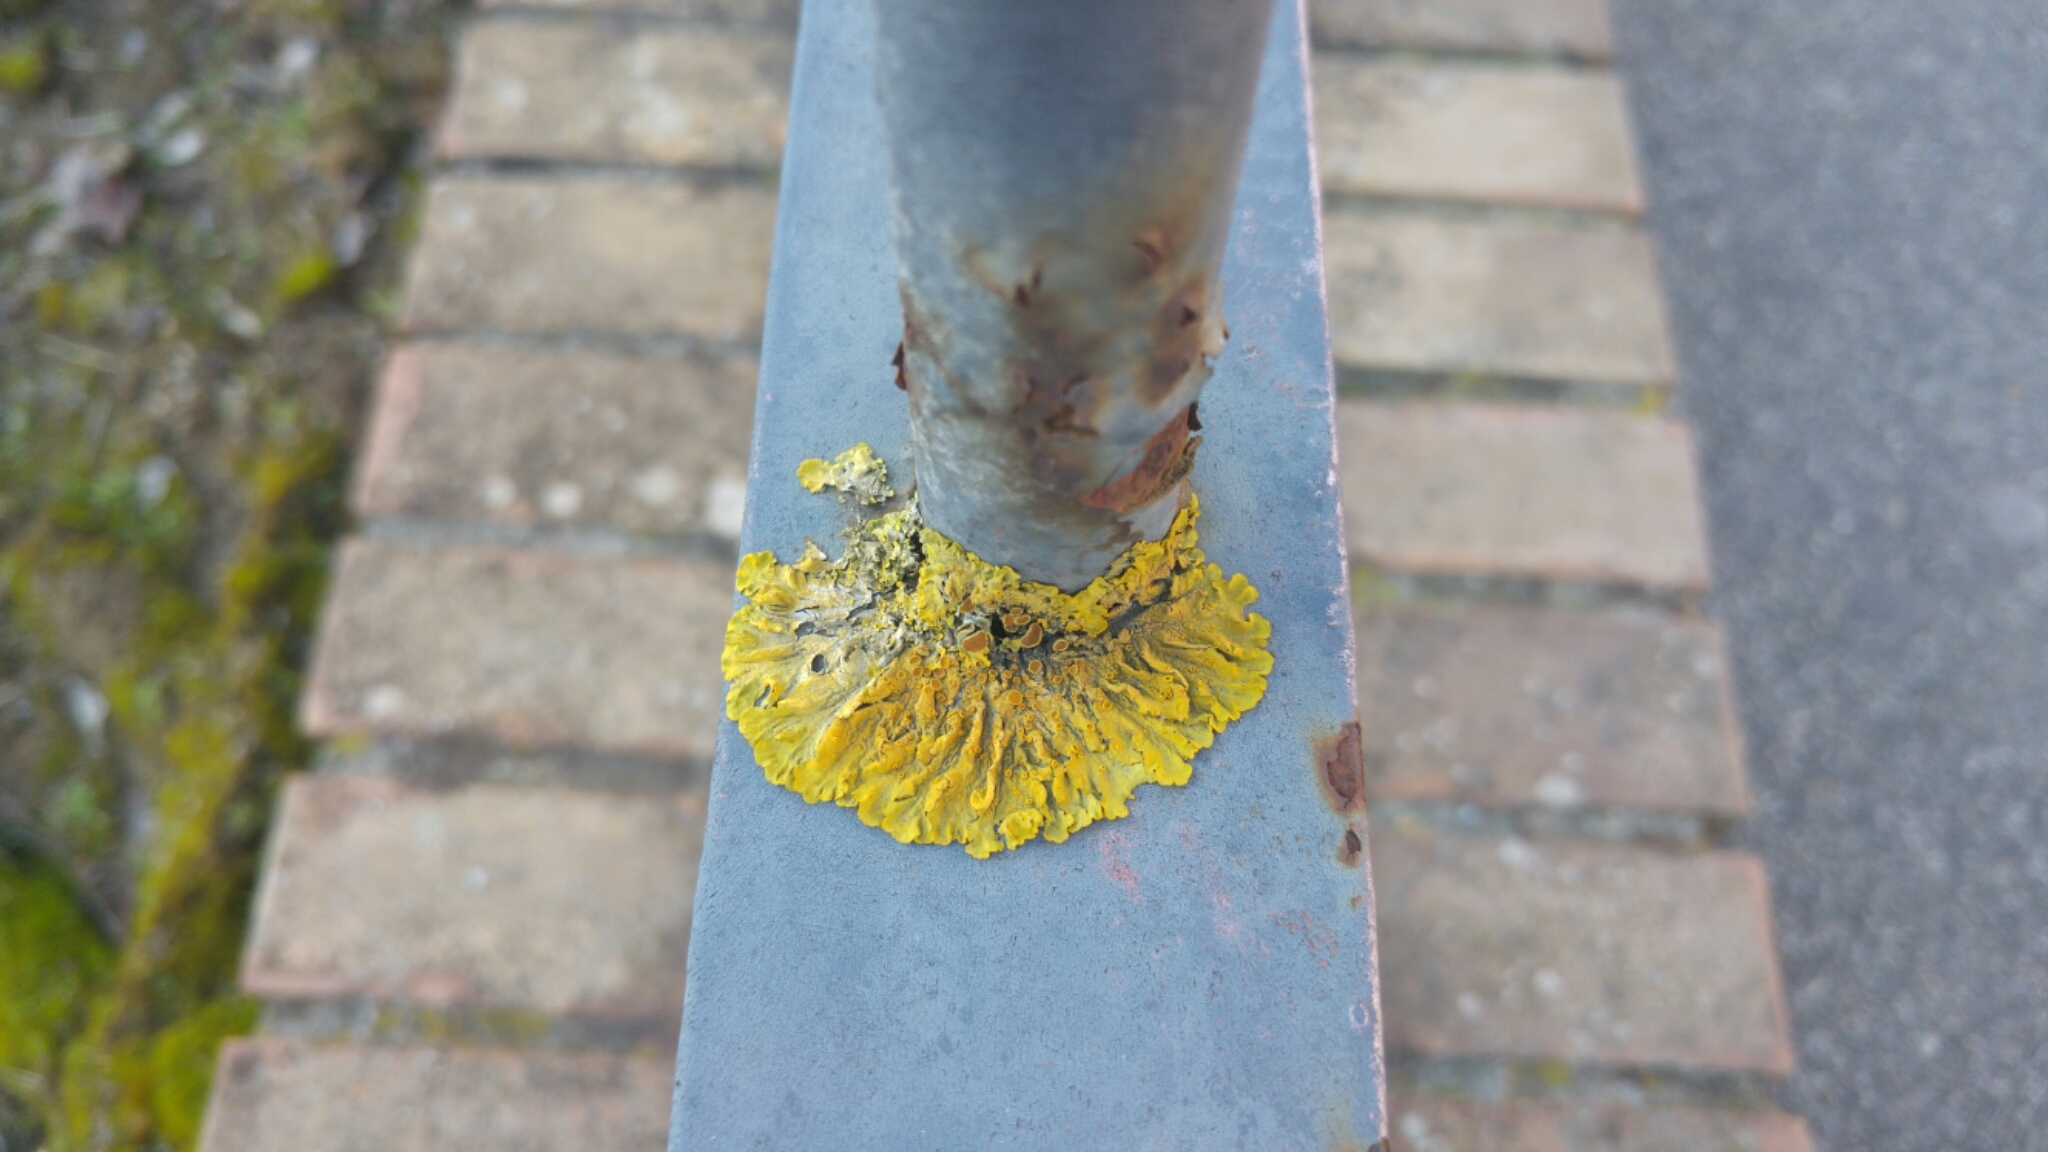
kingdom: Fungi
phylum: Ascomycota
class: Lecanoromycetes
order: Teloschistales
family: Teloschistaceae
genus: Xanthoria
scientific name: Xanthoria parietina
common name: Common orange lichen
